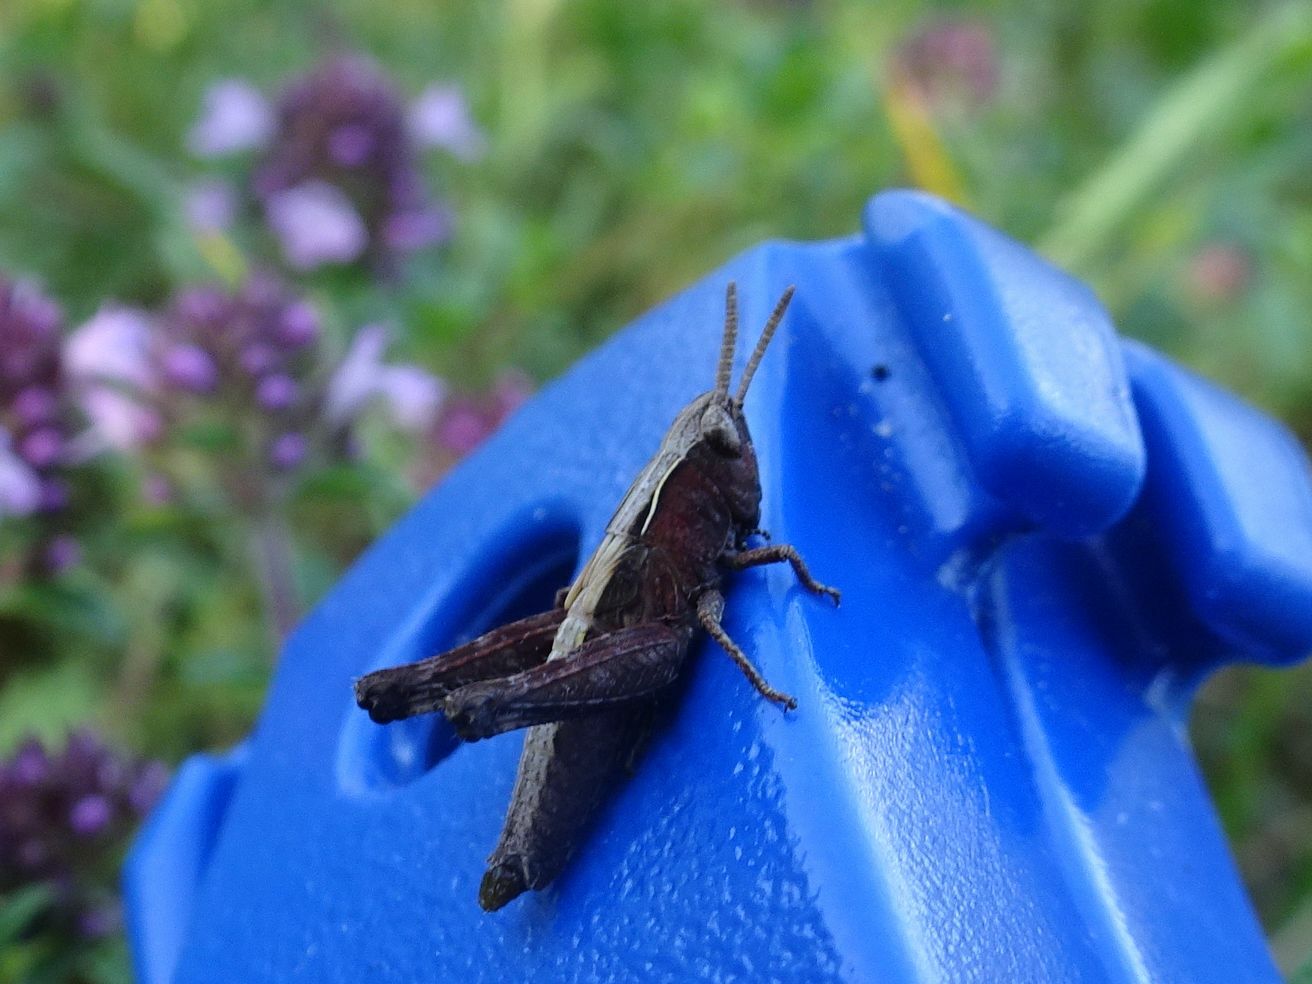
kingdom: Animalia
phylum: Arthropoda
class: Insecta
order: Orthoptera
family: Acrididae
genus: Omocestus
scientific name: Omocestus rufipes
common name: Woodland grasshopper
